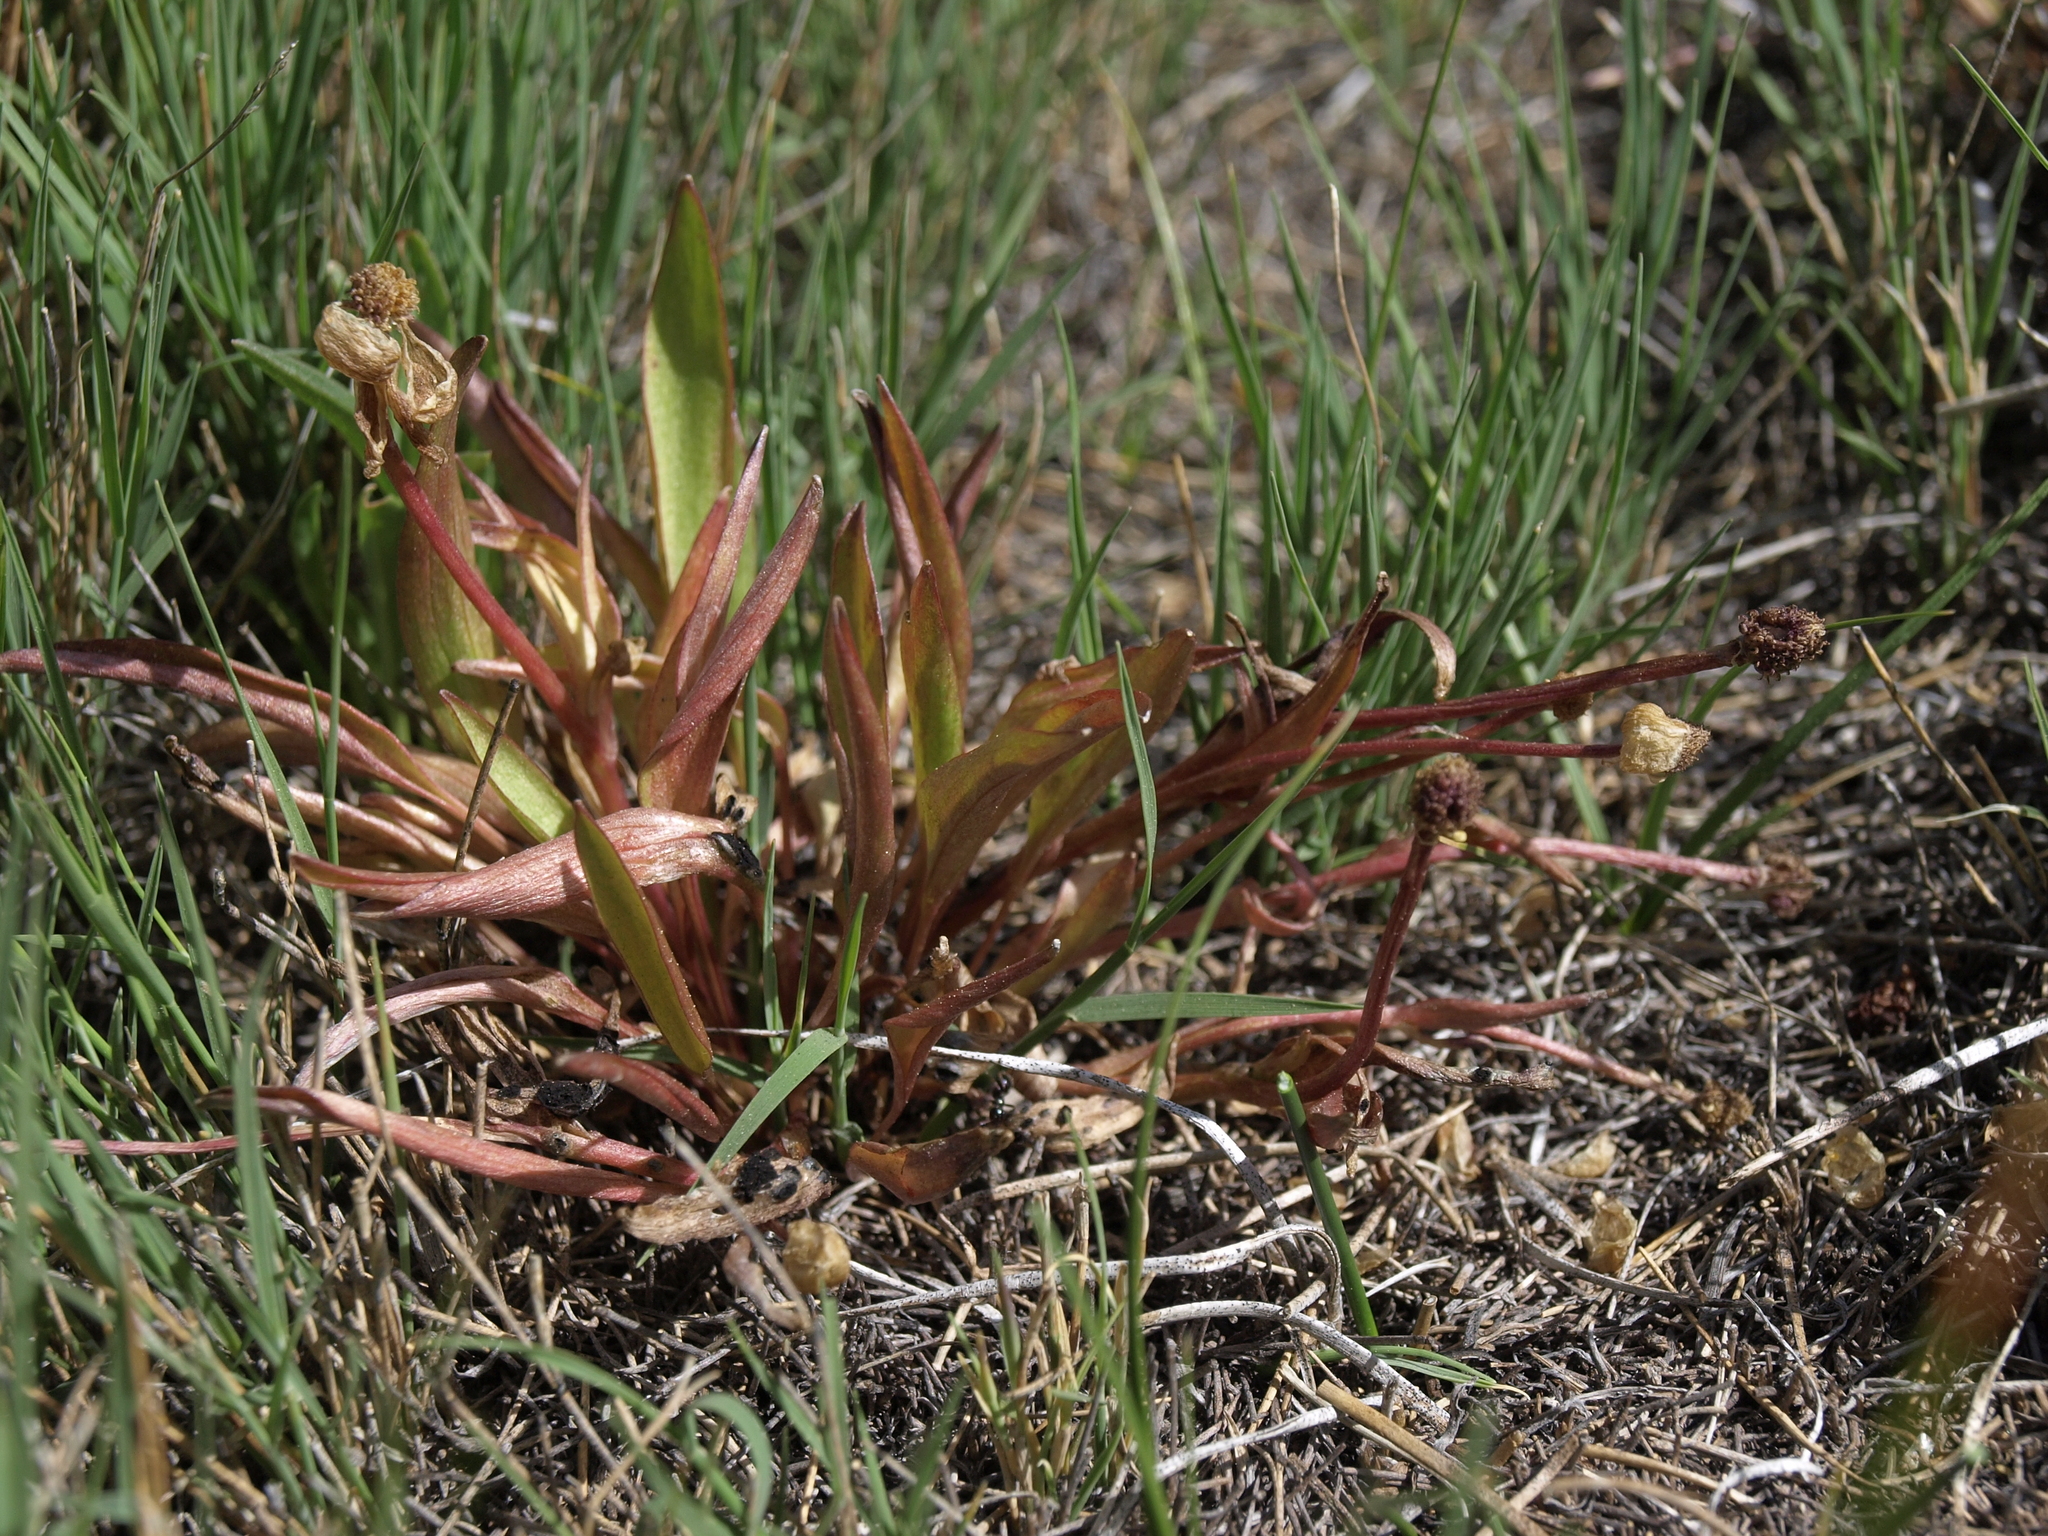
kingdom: Plantae
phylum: Tracheophyta
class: Magnoliopsida
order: Ranunculales
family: Ranunculaceae
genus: Ranunculus
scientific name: Ranunculus glaberrimus
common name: Sagebrush buttercup
